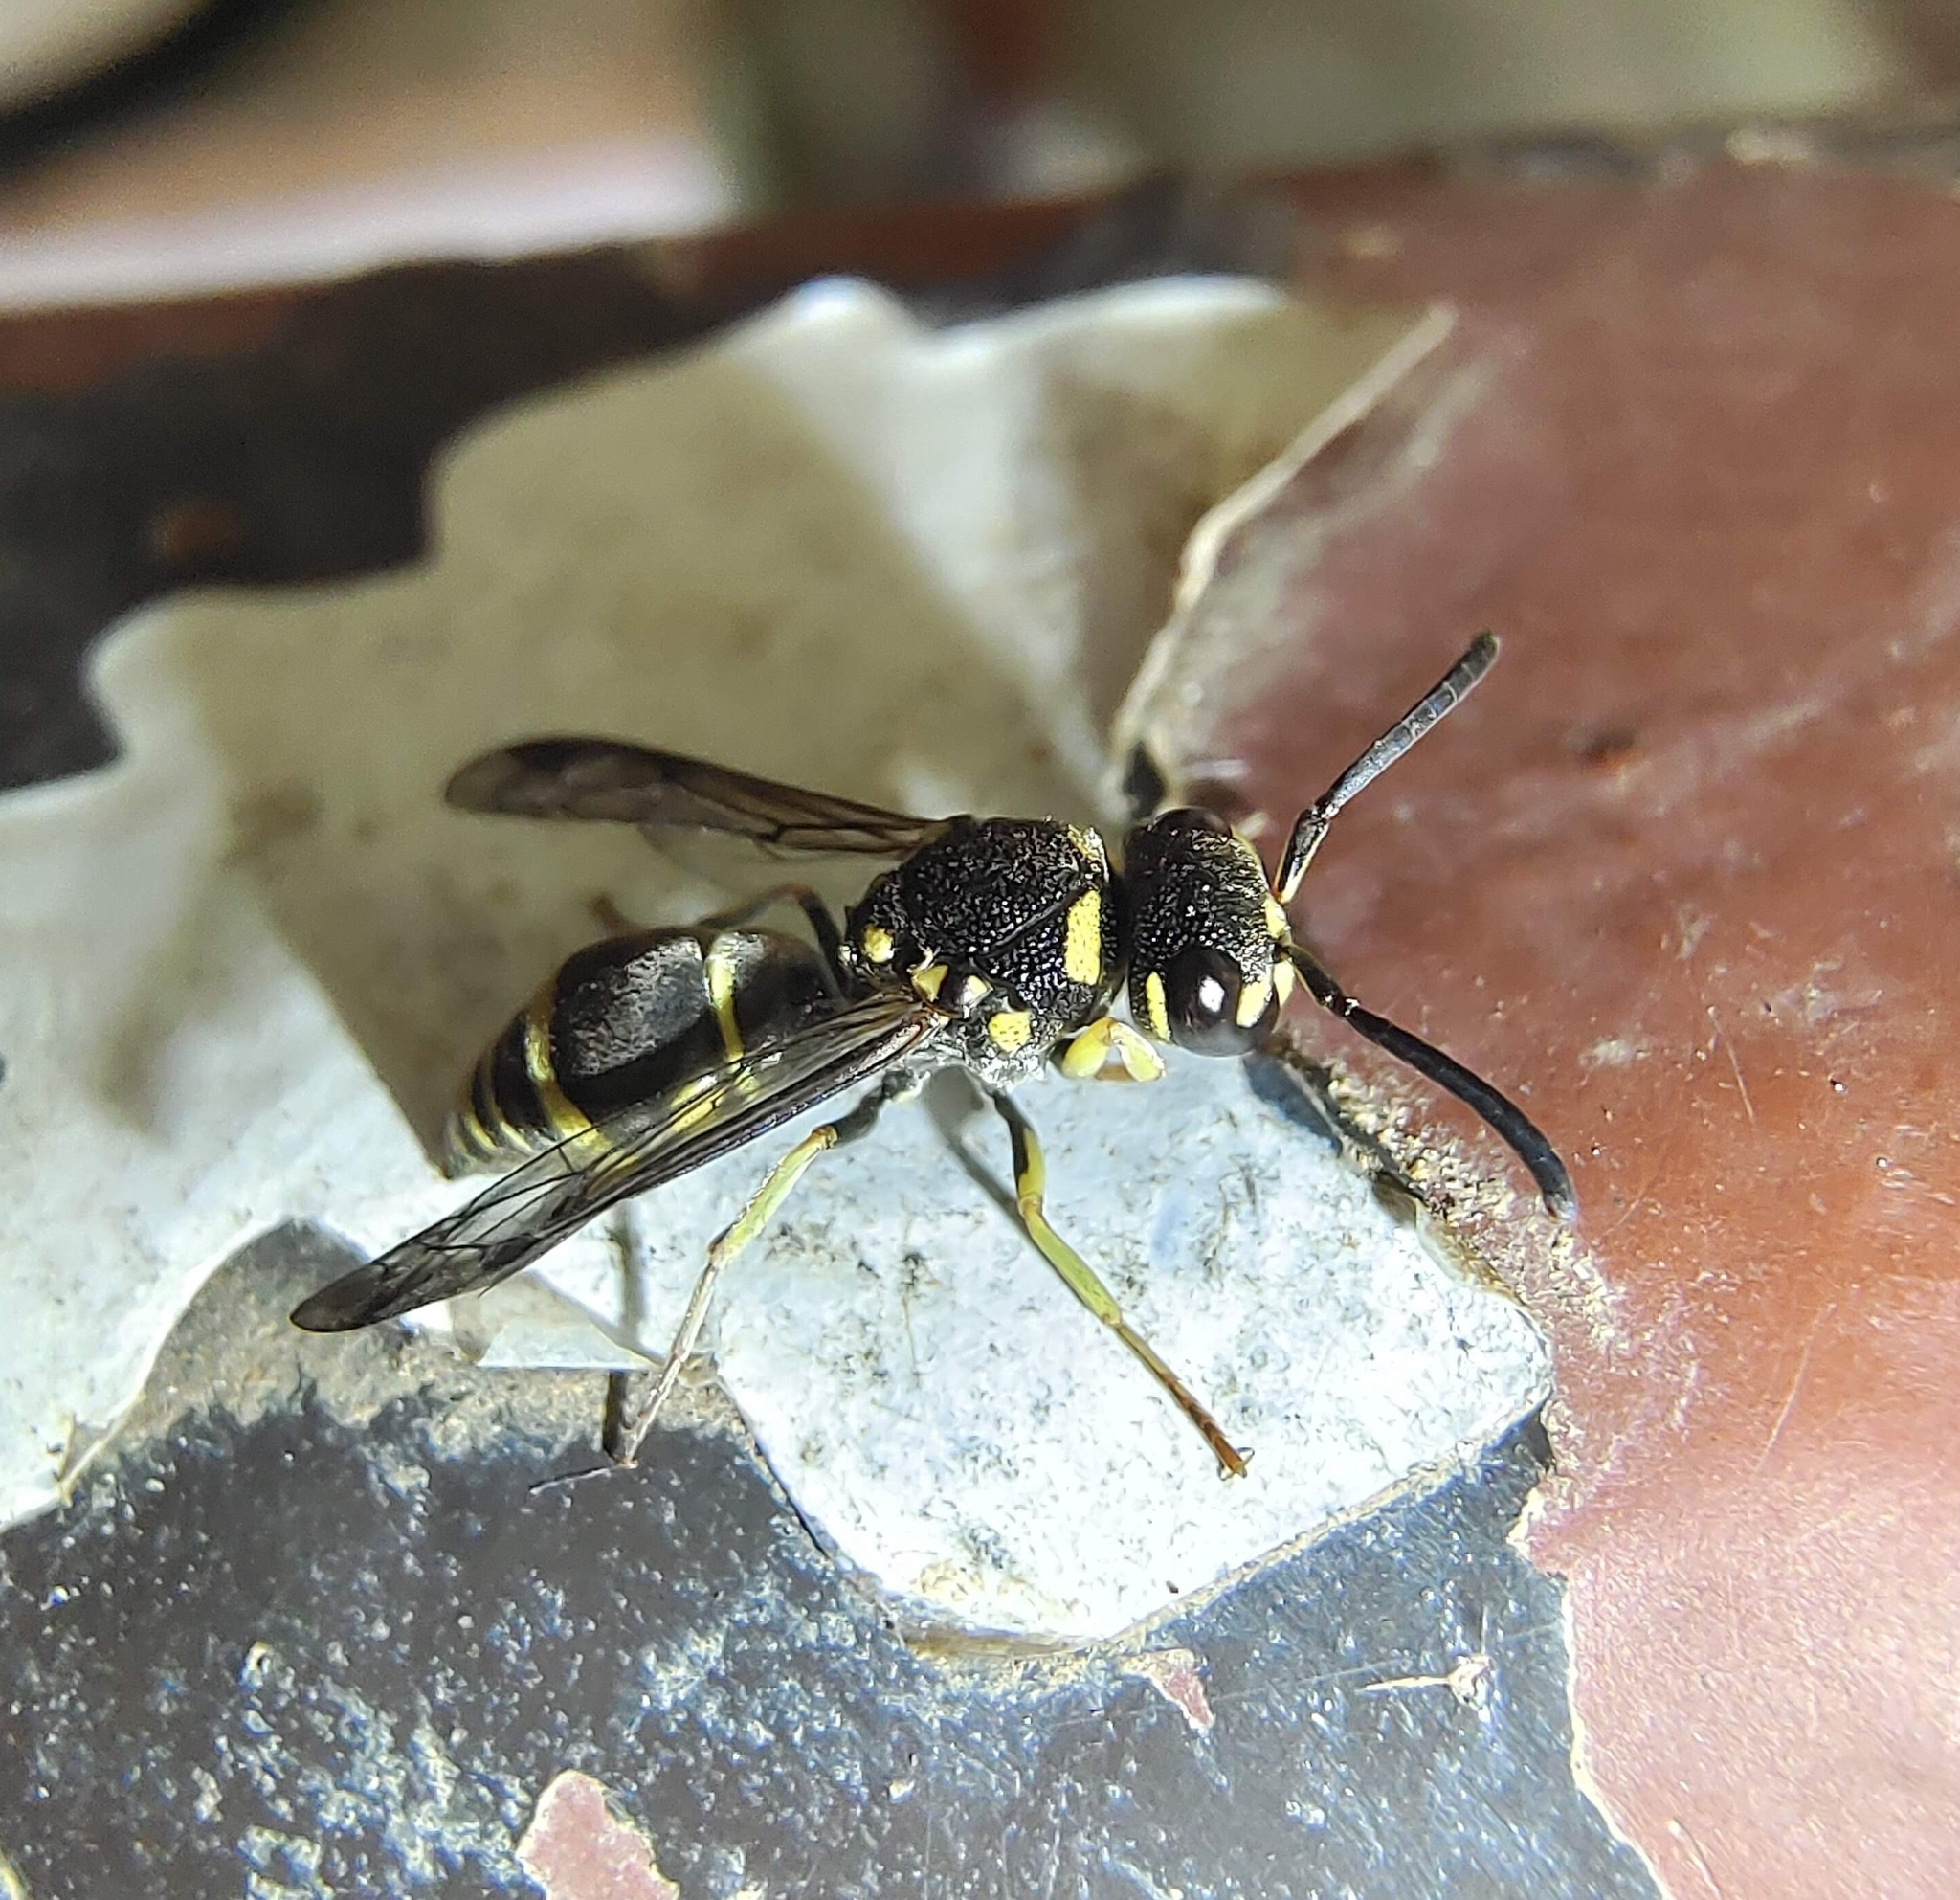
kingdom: Animalia
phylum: Arthropoda
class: Insecta
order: Hymenoptera
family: Eumenidae
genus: Antepipona
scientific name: Antepipona bipustulata
